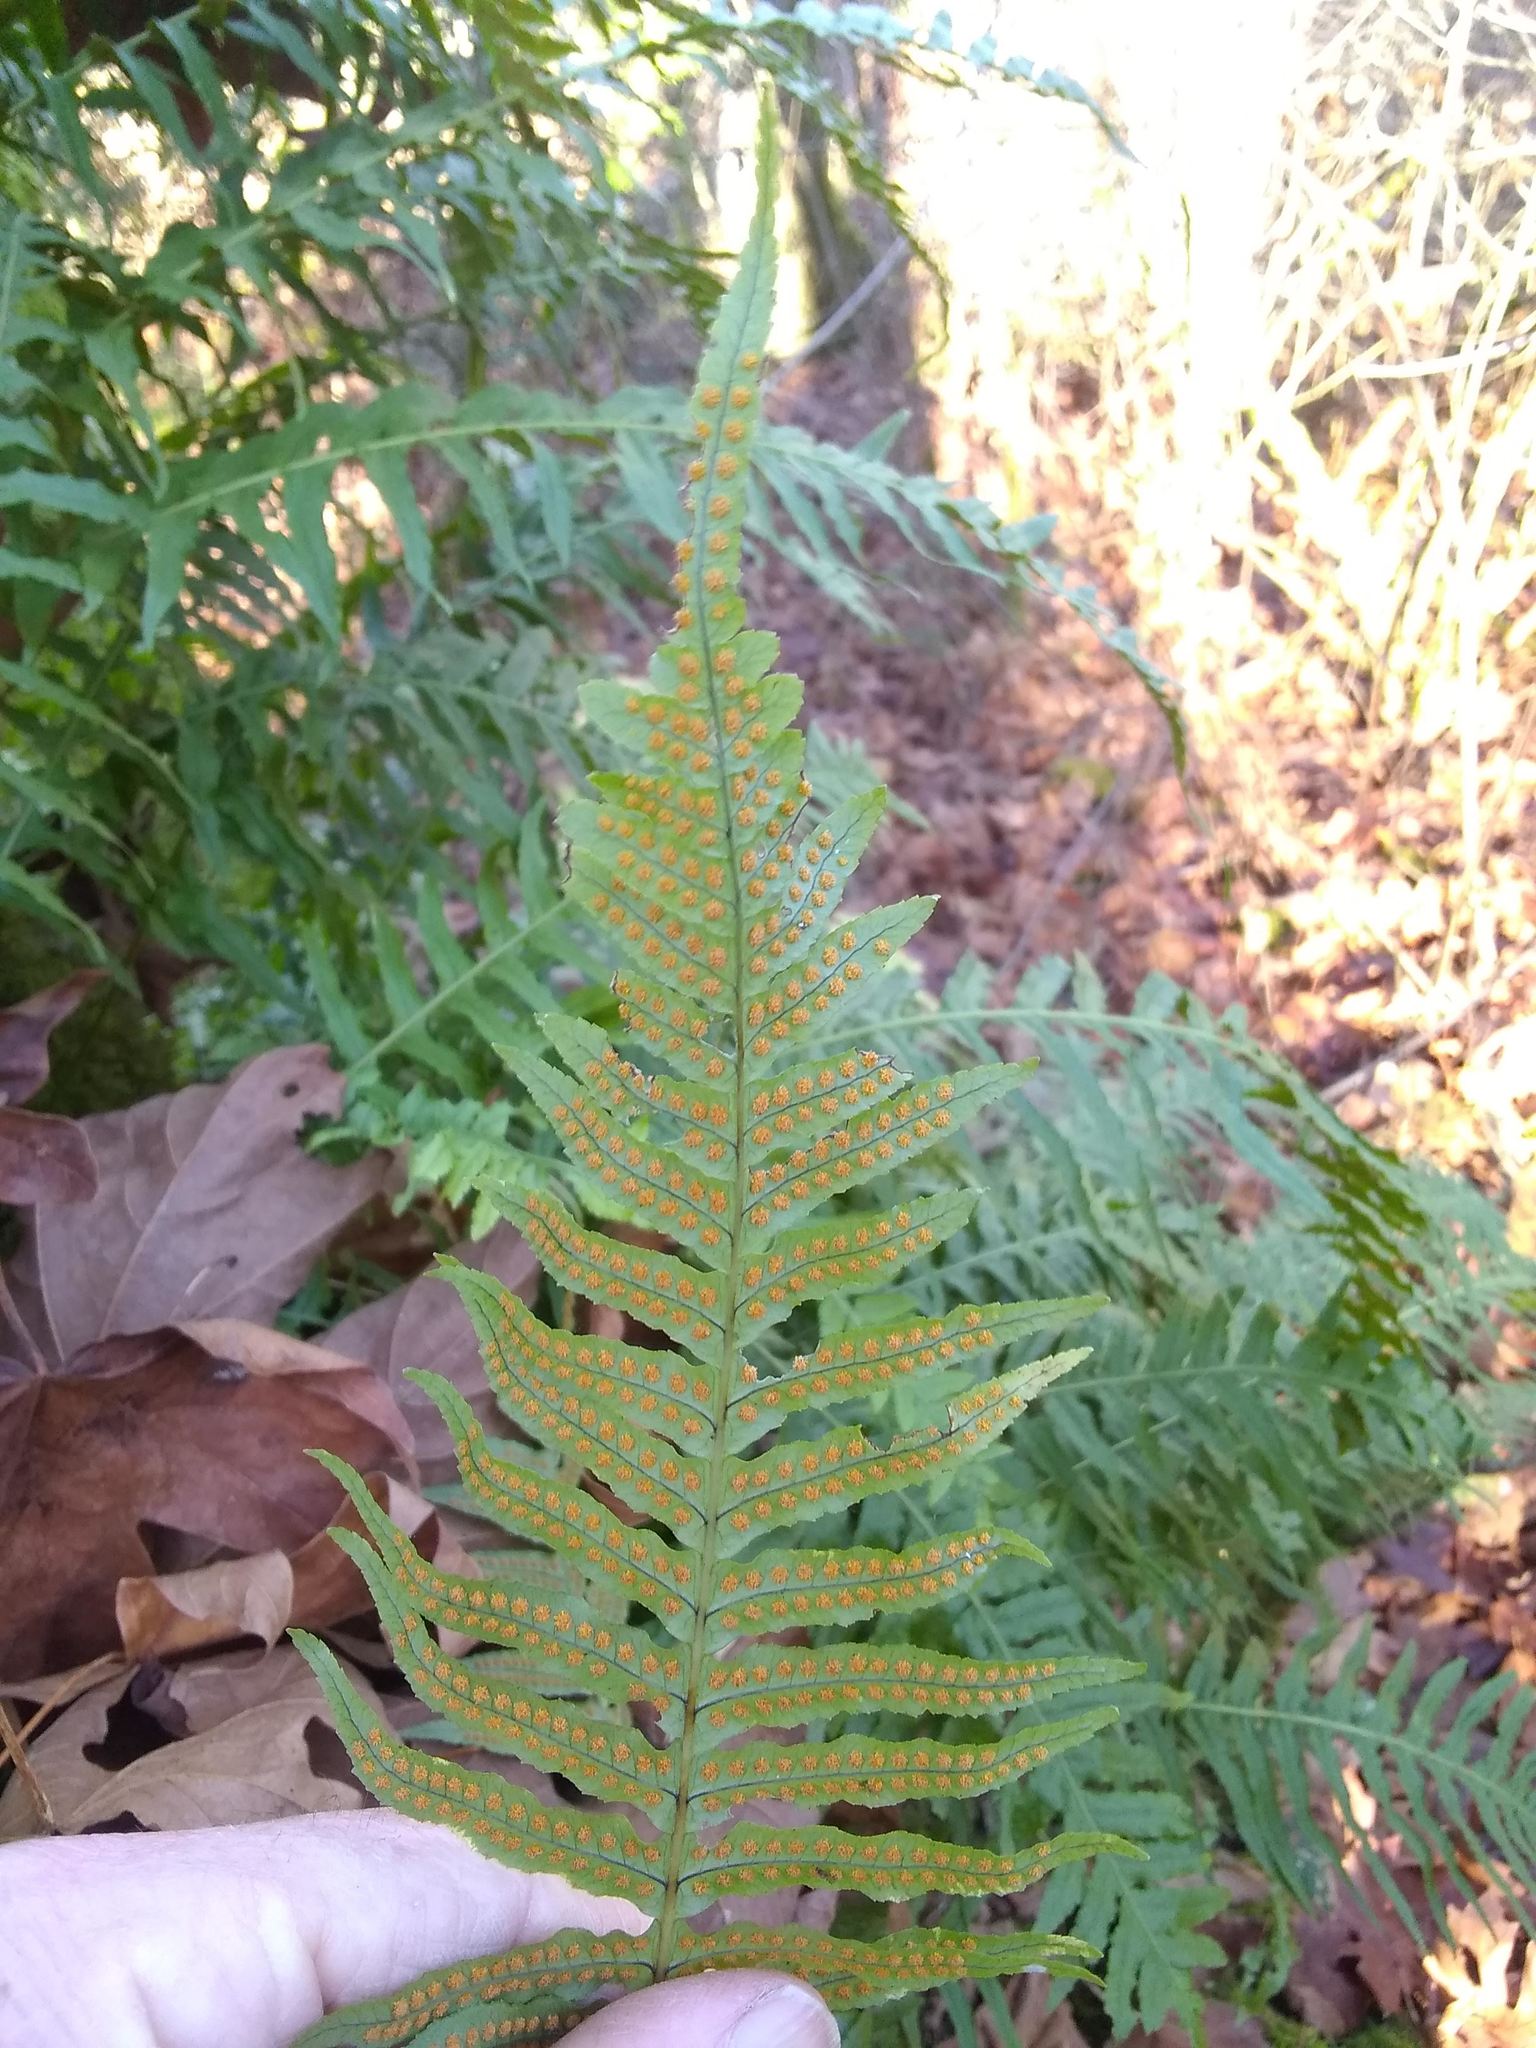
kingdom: Plantae
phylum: Tracheophyta
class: Polypodiopsida
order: Polypodiales
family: Polypodiaceae
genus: Polypodium
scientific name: Polypodium glycyrrhiza
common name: Licorice fern
